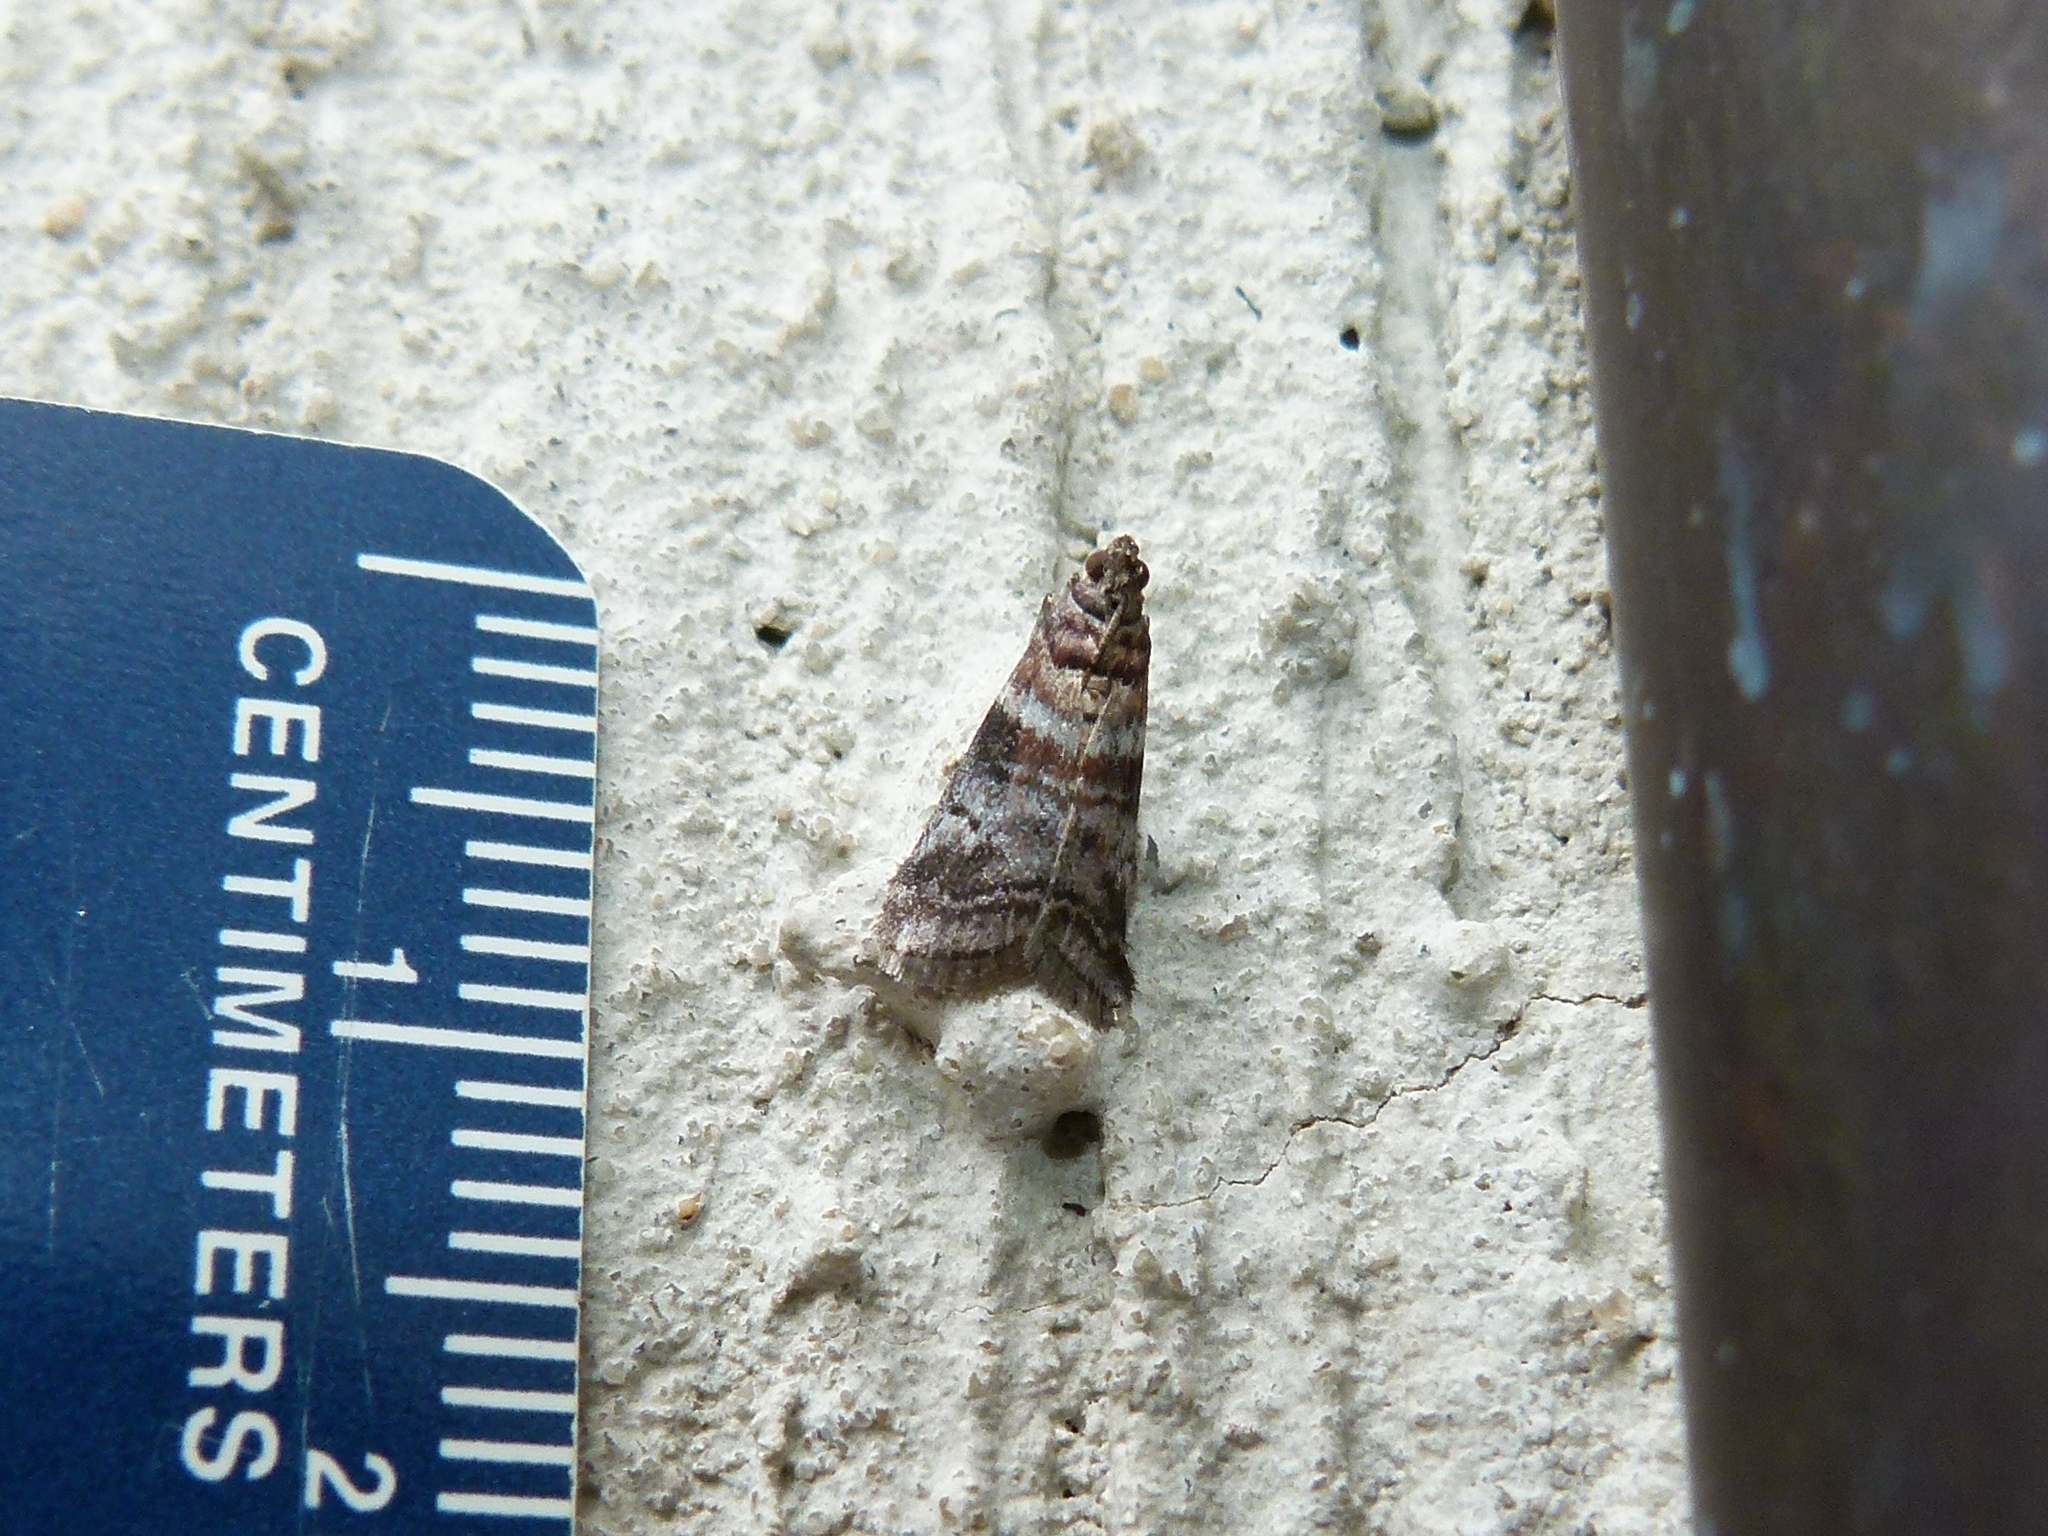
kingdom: Animalia
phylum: Arthropoda
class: Insecta
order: Lepidoptera
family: Pyralidae
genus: Sciota
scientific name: Sciota uvinella
